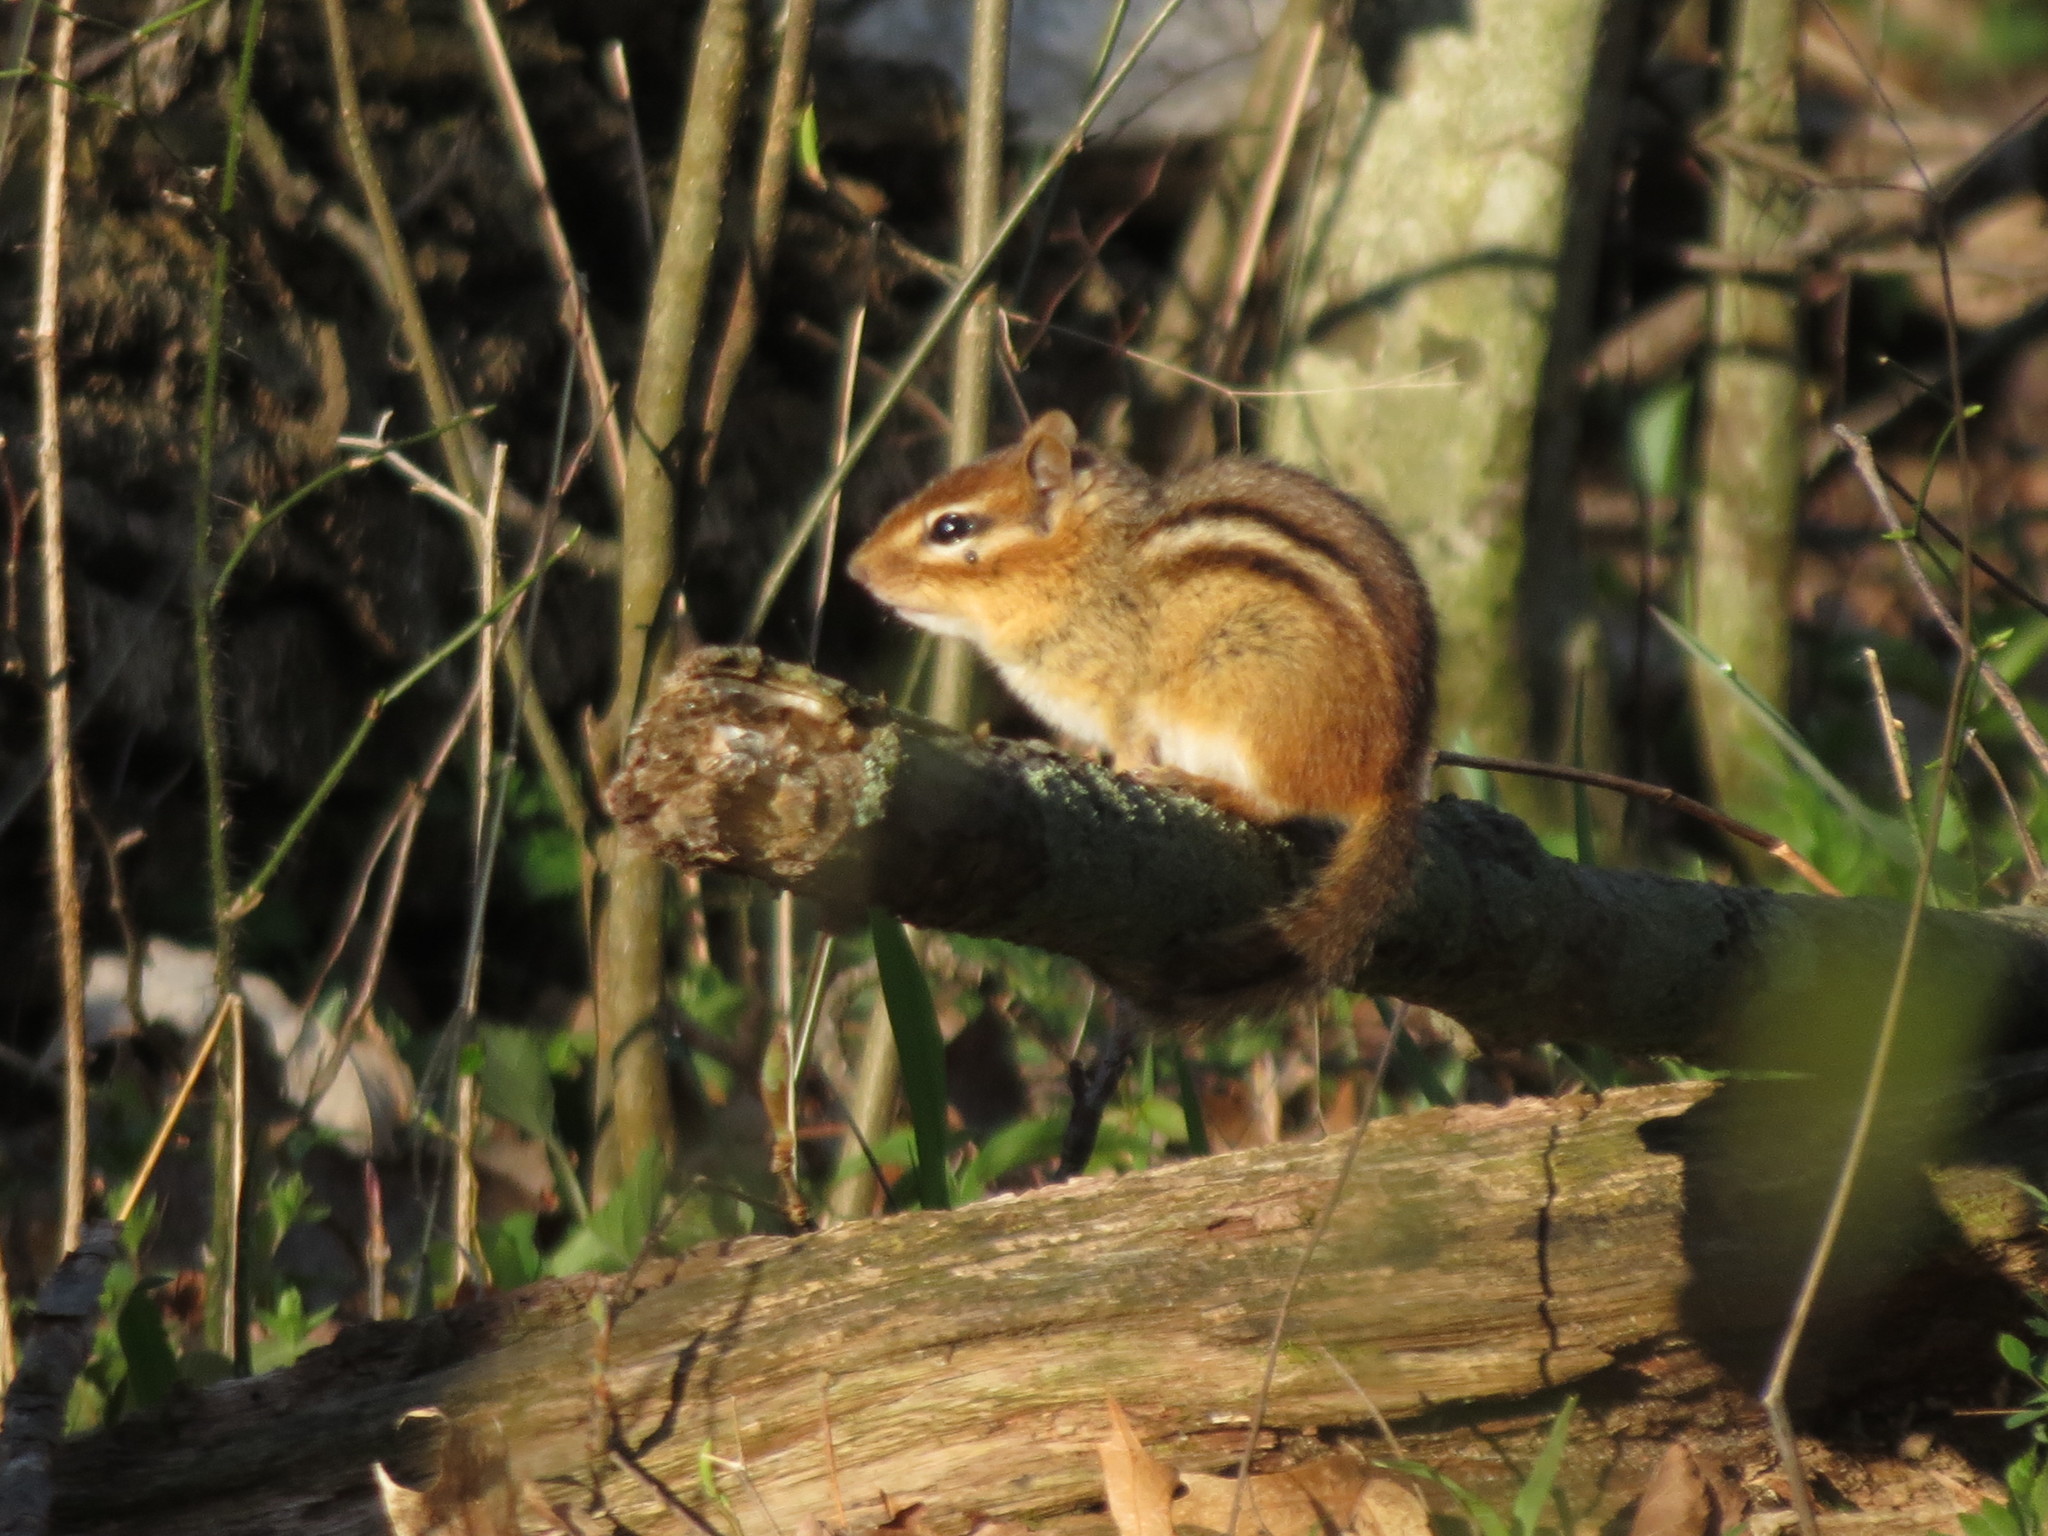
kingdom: Animalia
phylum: Chordata
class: Mammalia
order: Rodentia
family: Sciuridae
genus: Tamias
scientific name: Tamias striatus
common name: Eastern chipmunk
